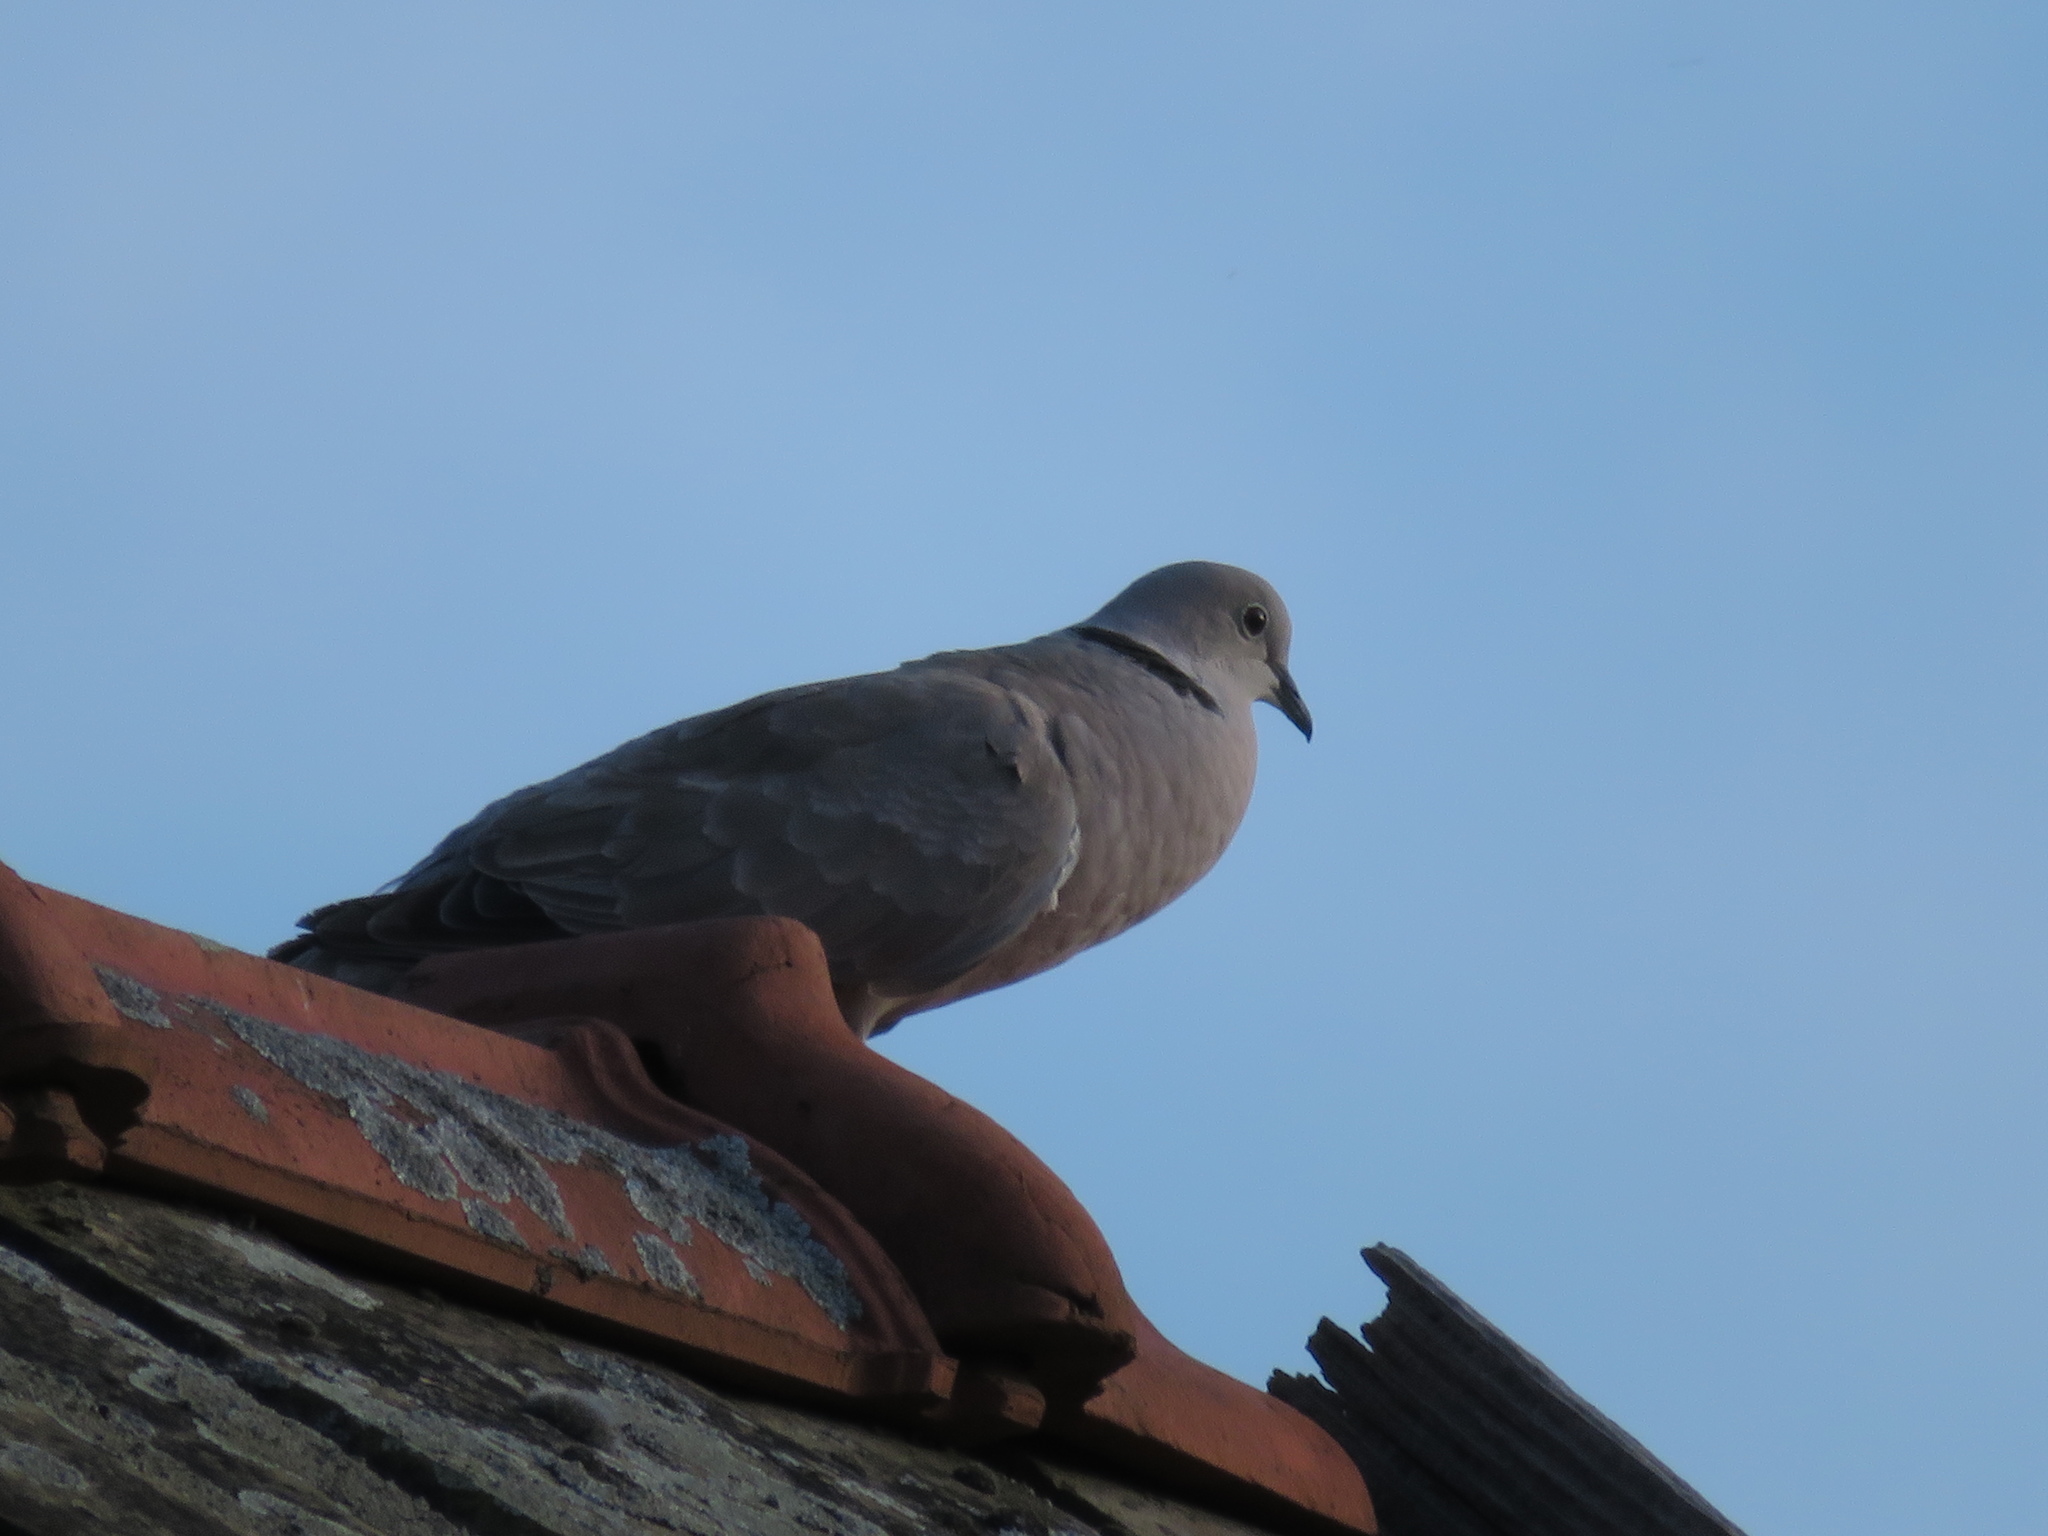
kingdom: Animalia
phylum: Chordata
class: Aves
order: Columbiformes
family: Columbidae
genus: Streptopelia
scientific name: Streptopelia decaocto
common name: Eurasian collared dove
